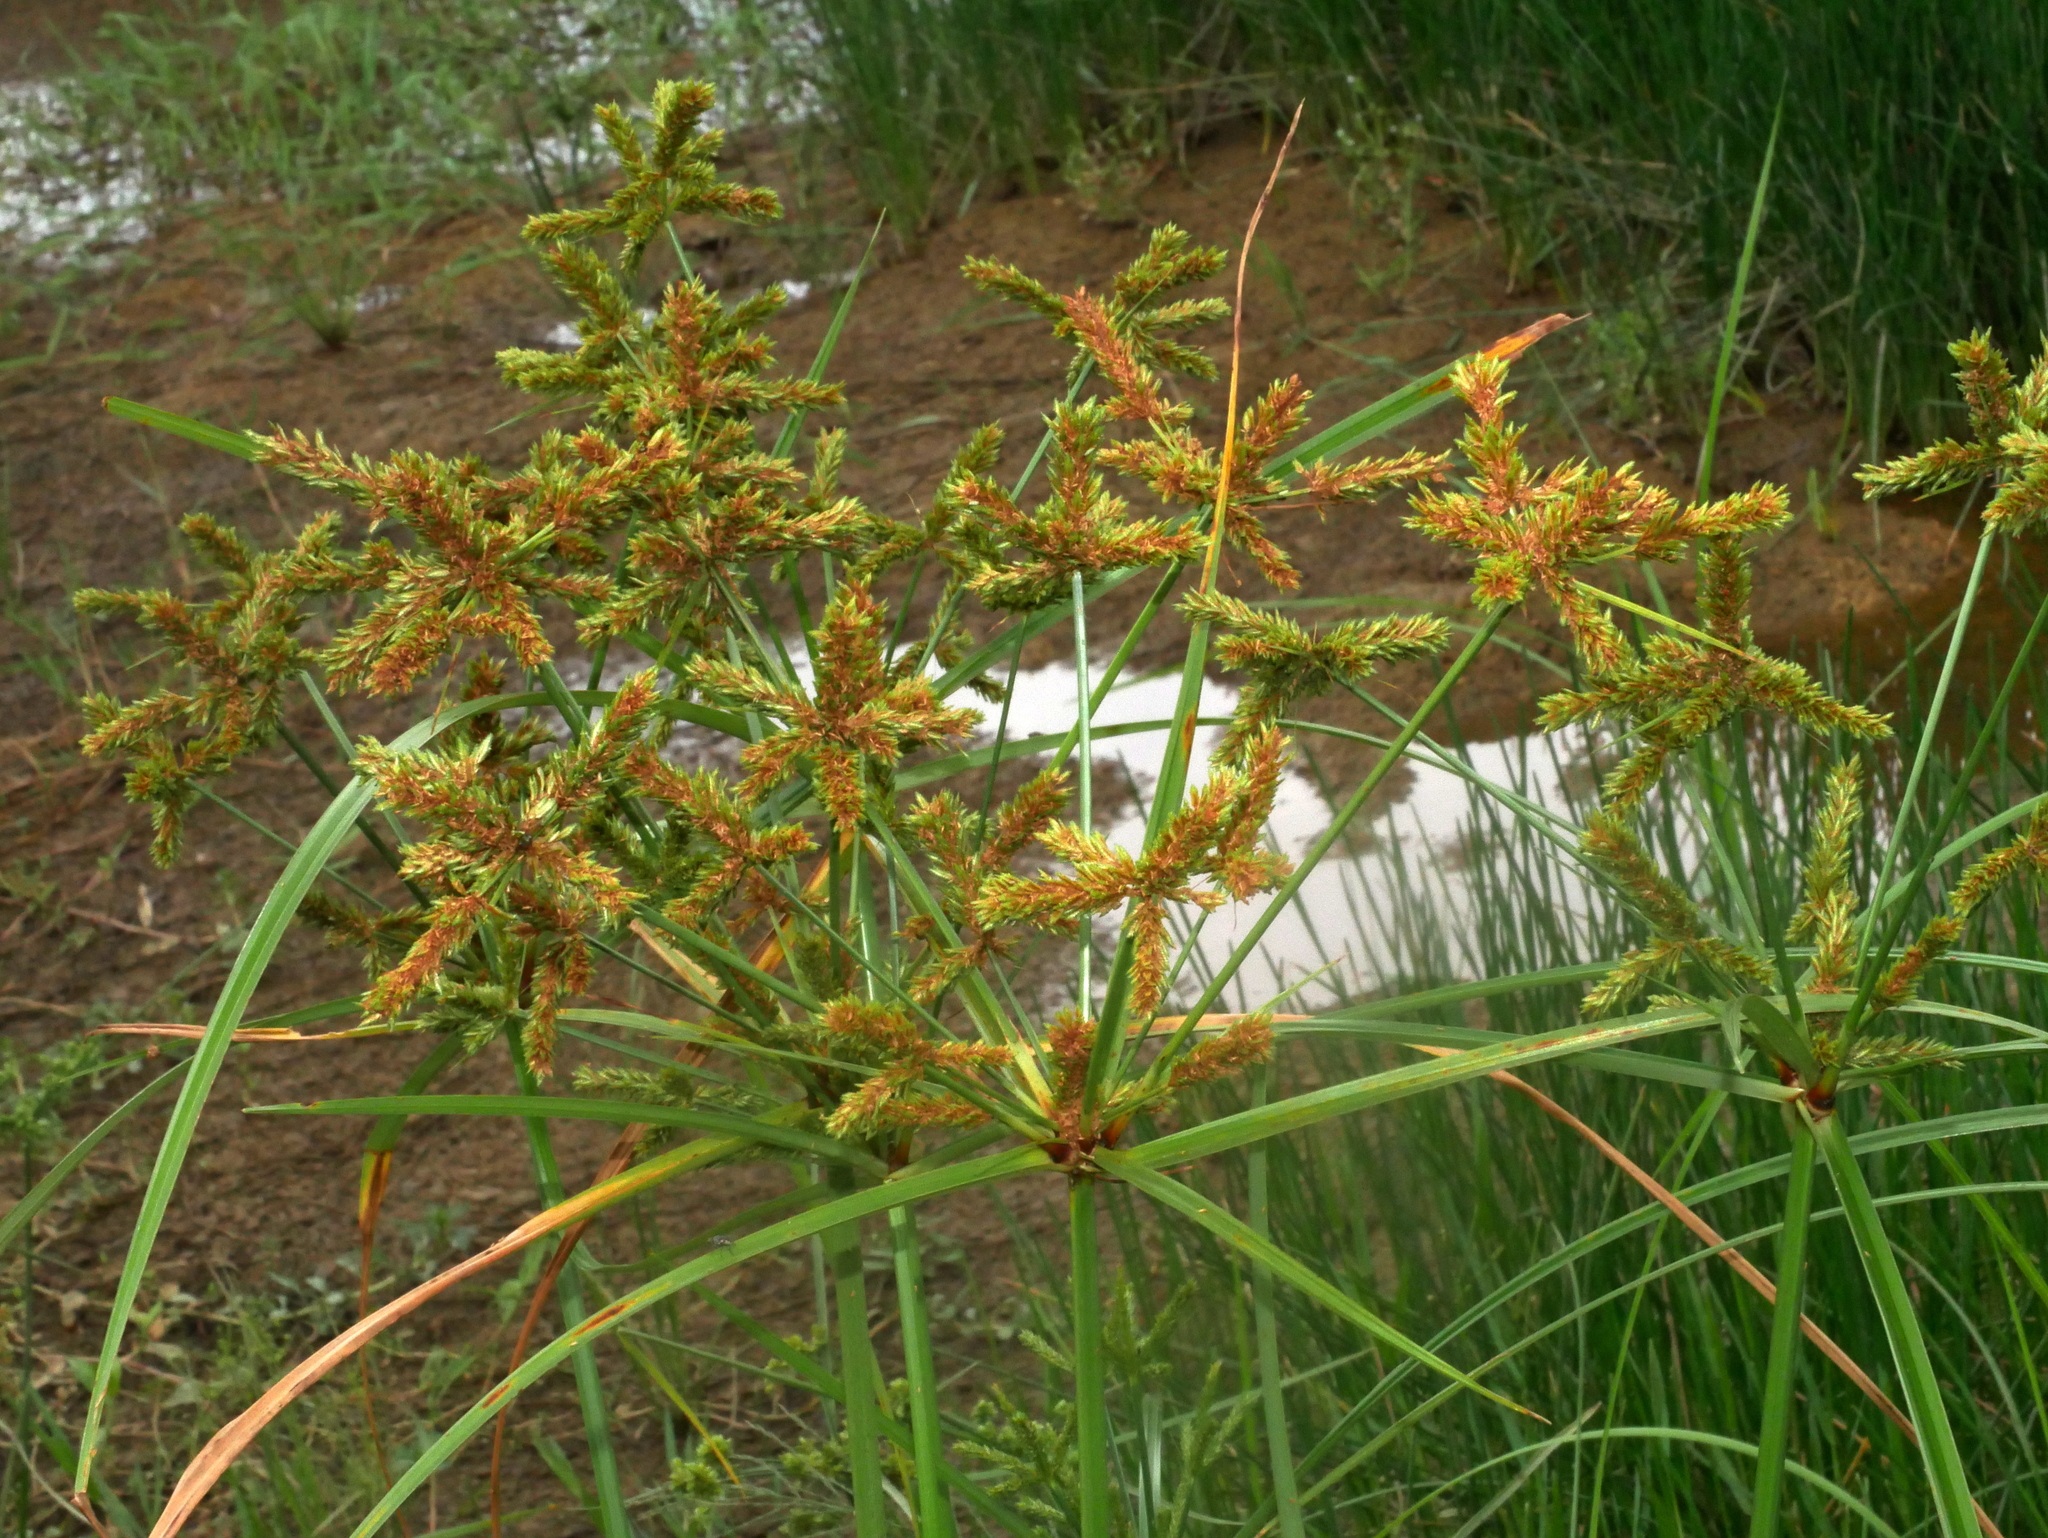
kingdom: Plantae
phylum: Tracheophyta
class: Liliopsida
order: Poales
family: Cyperaceae
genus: Cyperus
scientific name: Cyperus imbricatus
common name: Shingle flatsedge
